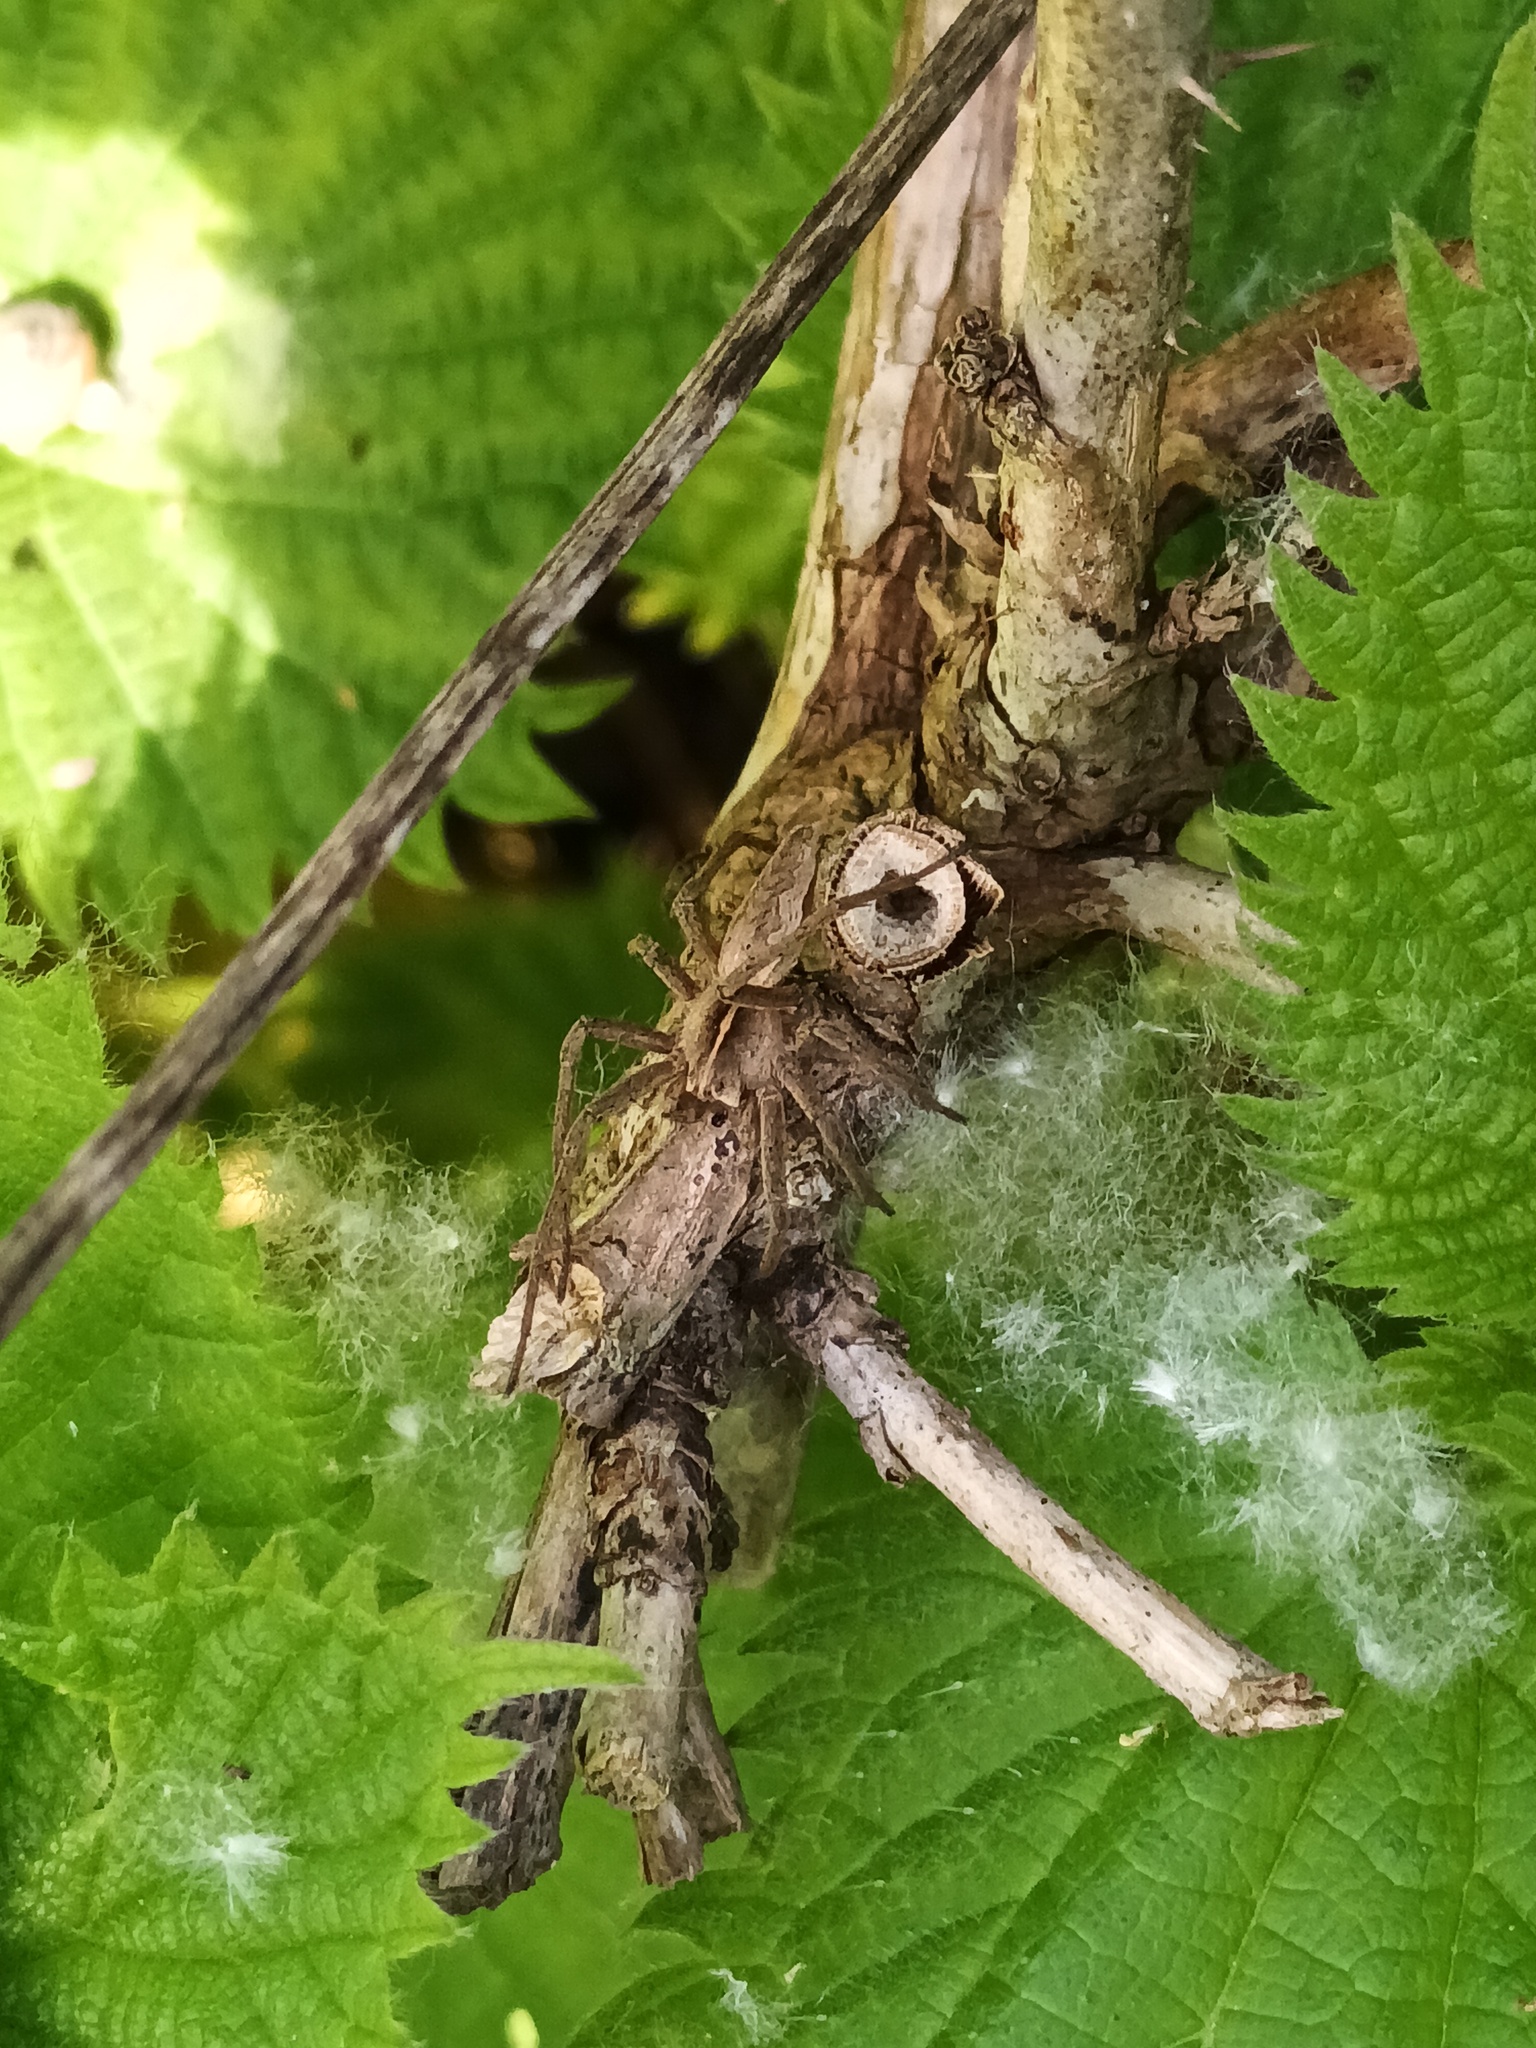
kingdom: Animalia
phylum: Arthropoda
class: Arachnida
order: Araneae
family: Pisauridae
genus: Pisaura
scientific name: Pisaura mirabilis
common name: Tent spider
